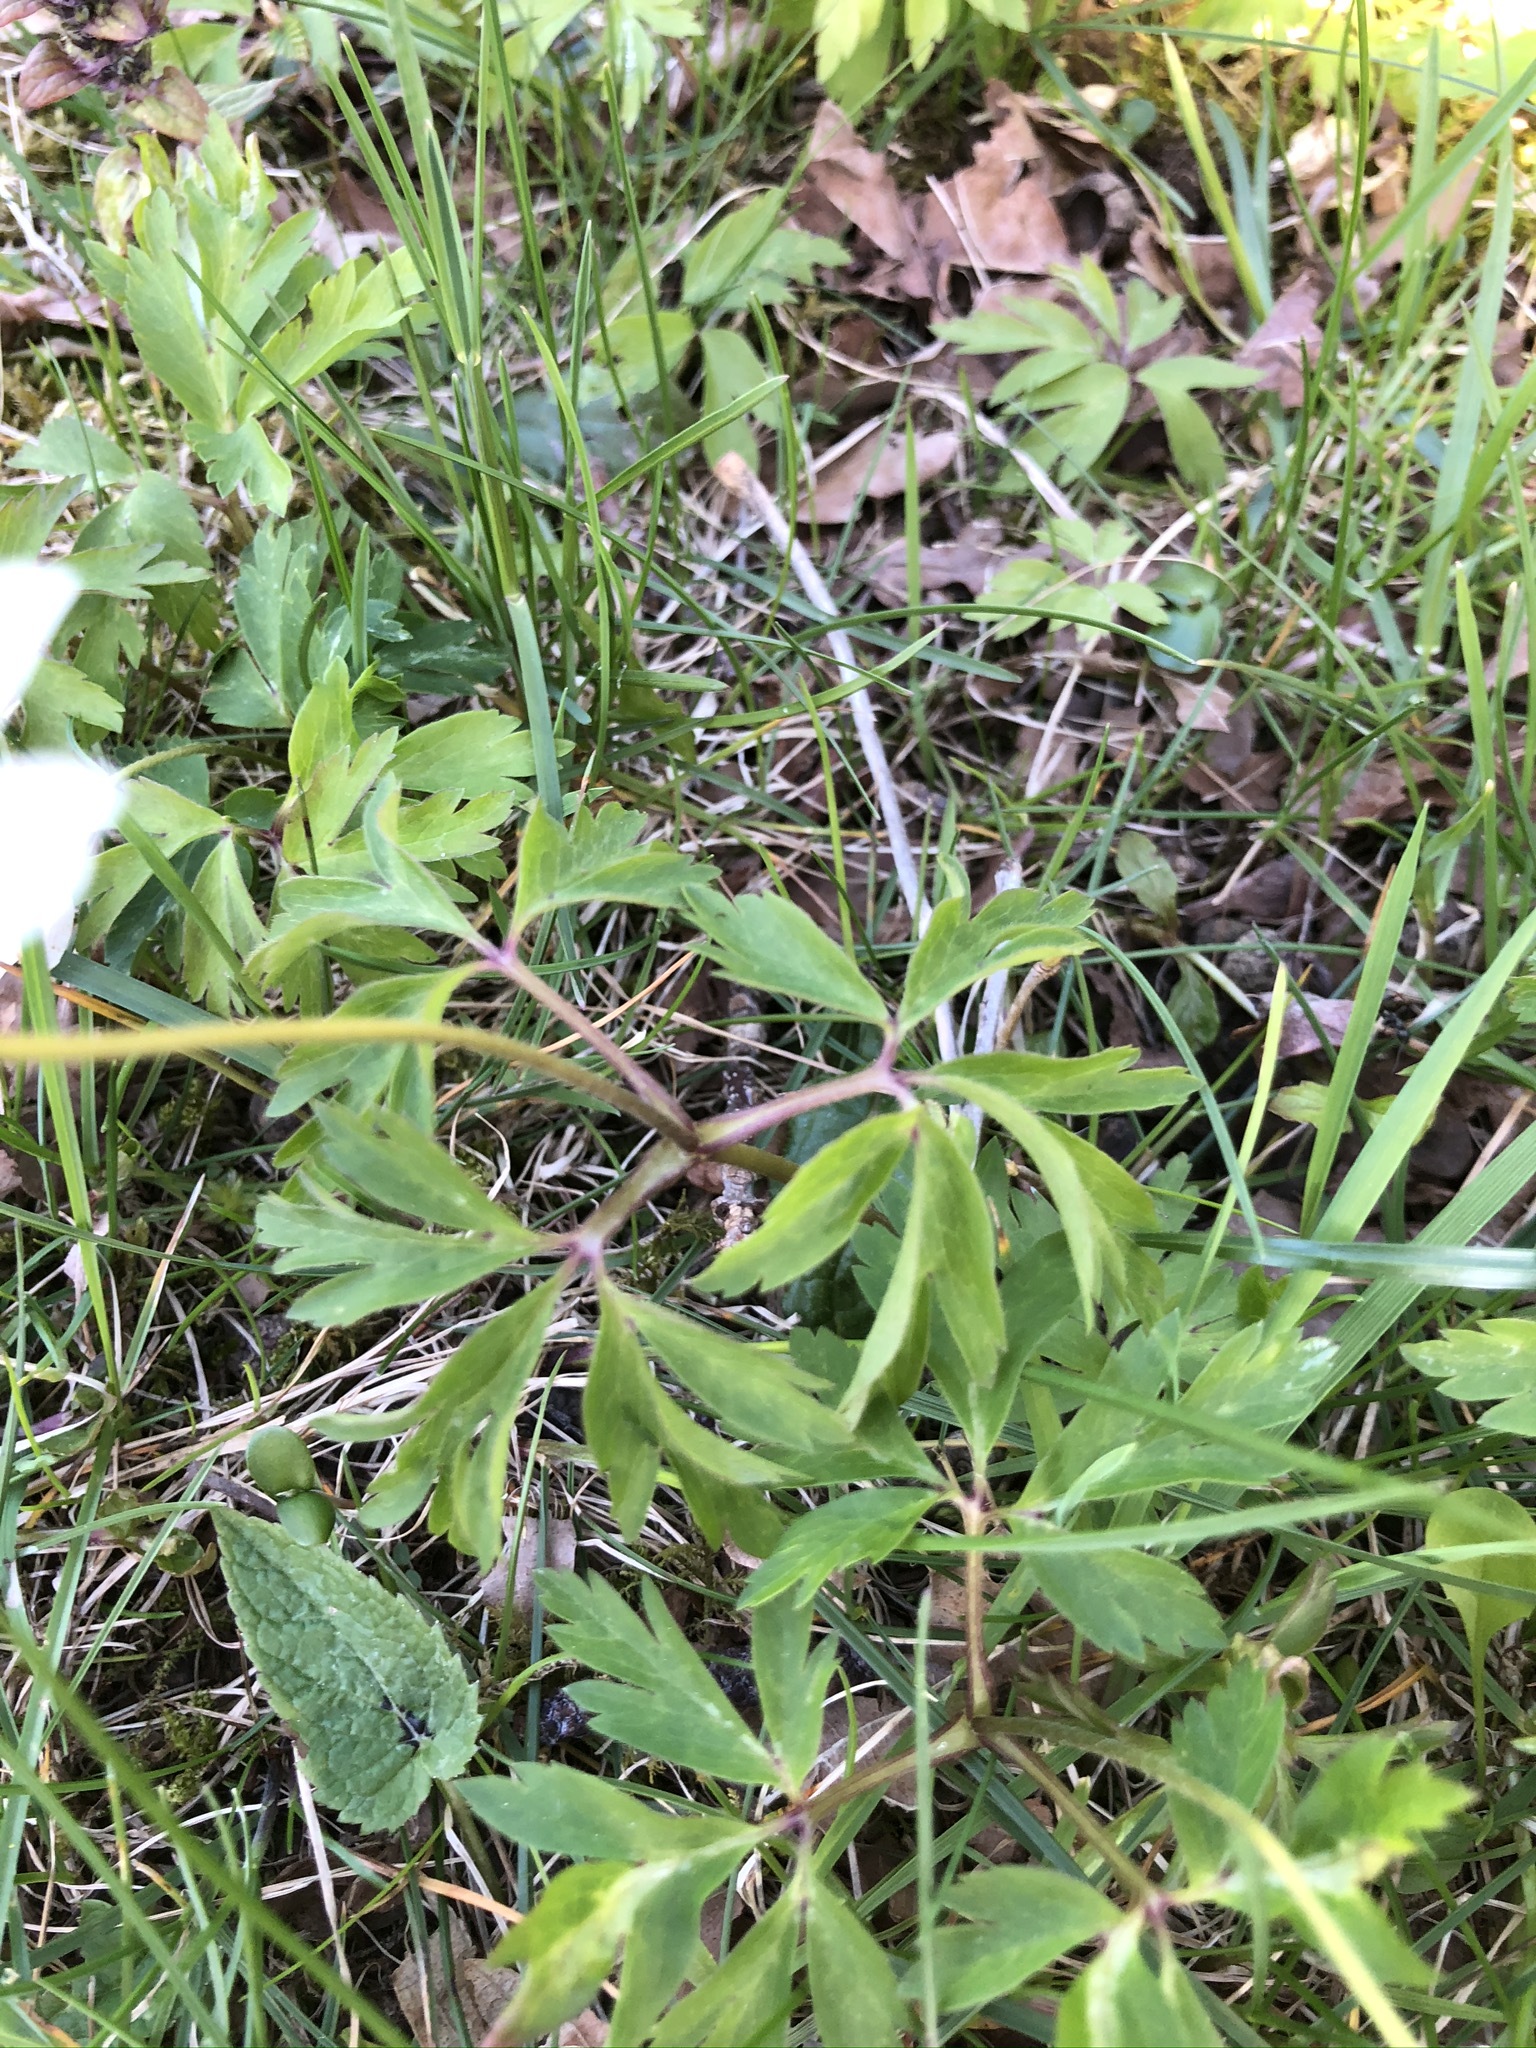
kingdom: Plantae
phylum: Tracheophyta
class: Magnoliopsida
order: Ranunculales
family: Ranunculaceae
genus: Anemone
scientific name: Anemone nemorosa
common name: Wood anemone
